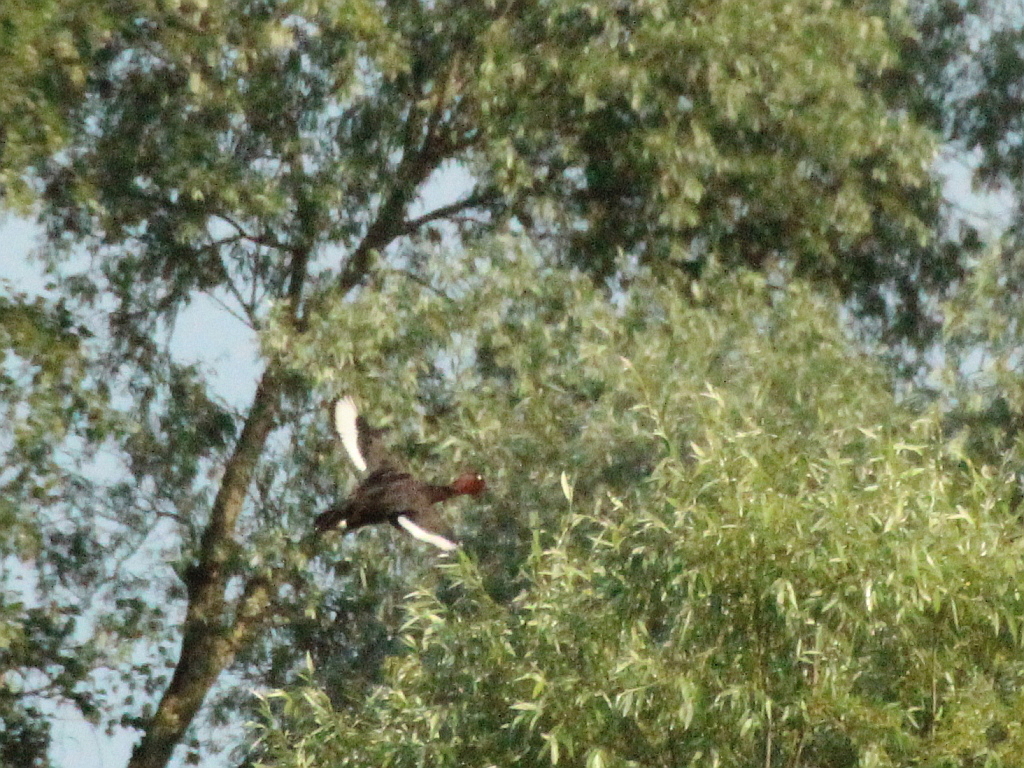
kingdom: Animalia
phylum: Chordata
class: Aves
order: Anseriformes
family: Anatidae
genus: Aythya
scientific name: Aythya nyroca
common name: Ferruginous duck
